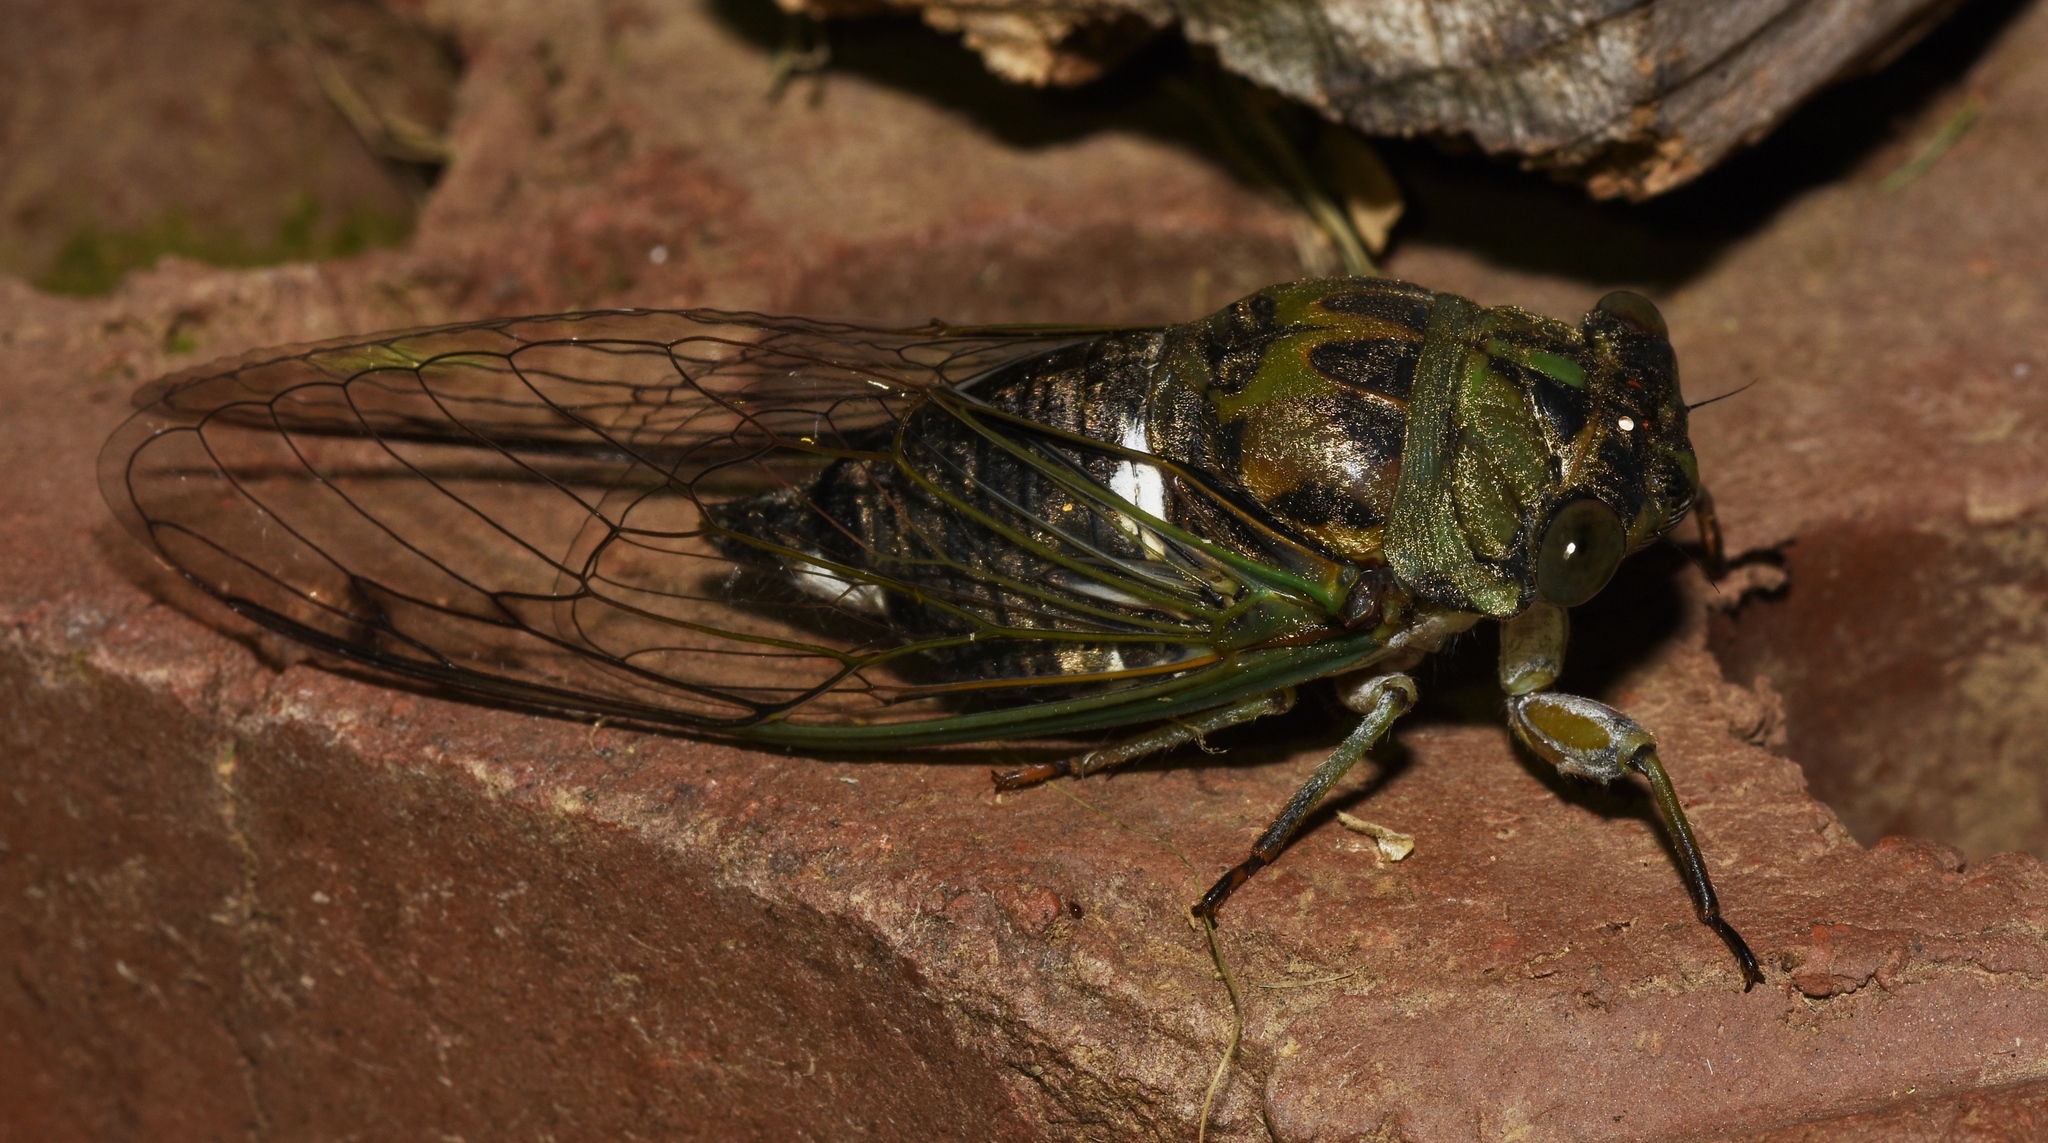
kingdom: Animalia
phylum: Arthropoda
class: Insecta
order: Hemiptera
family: Cicadidae
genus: Neotibicen
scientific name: Neotibicen pruinosus
